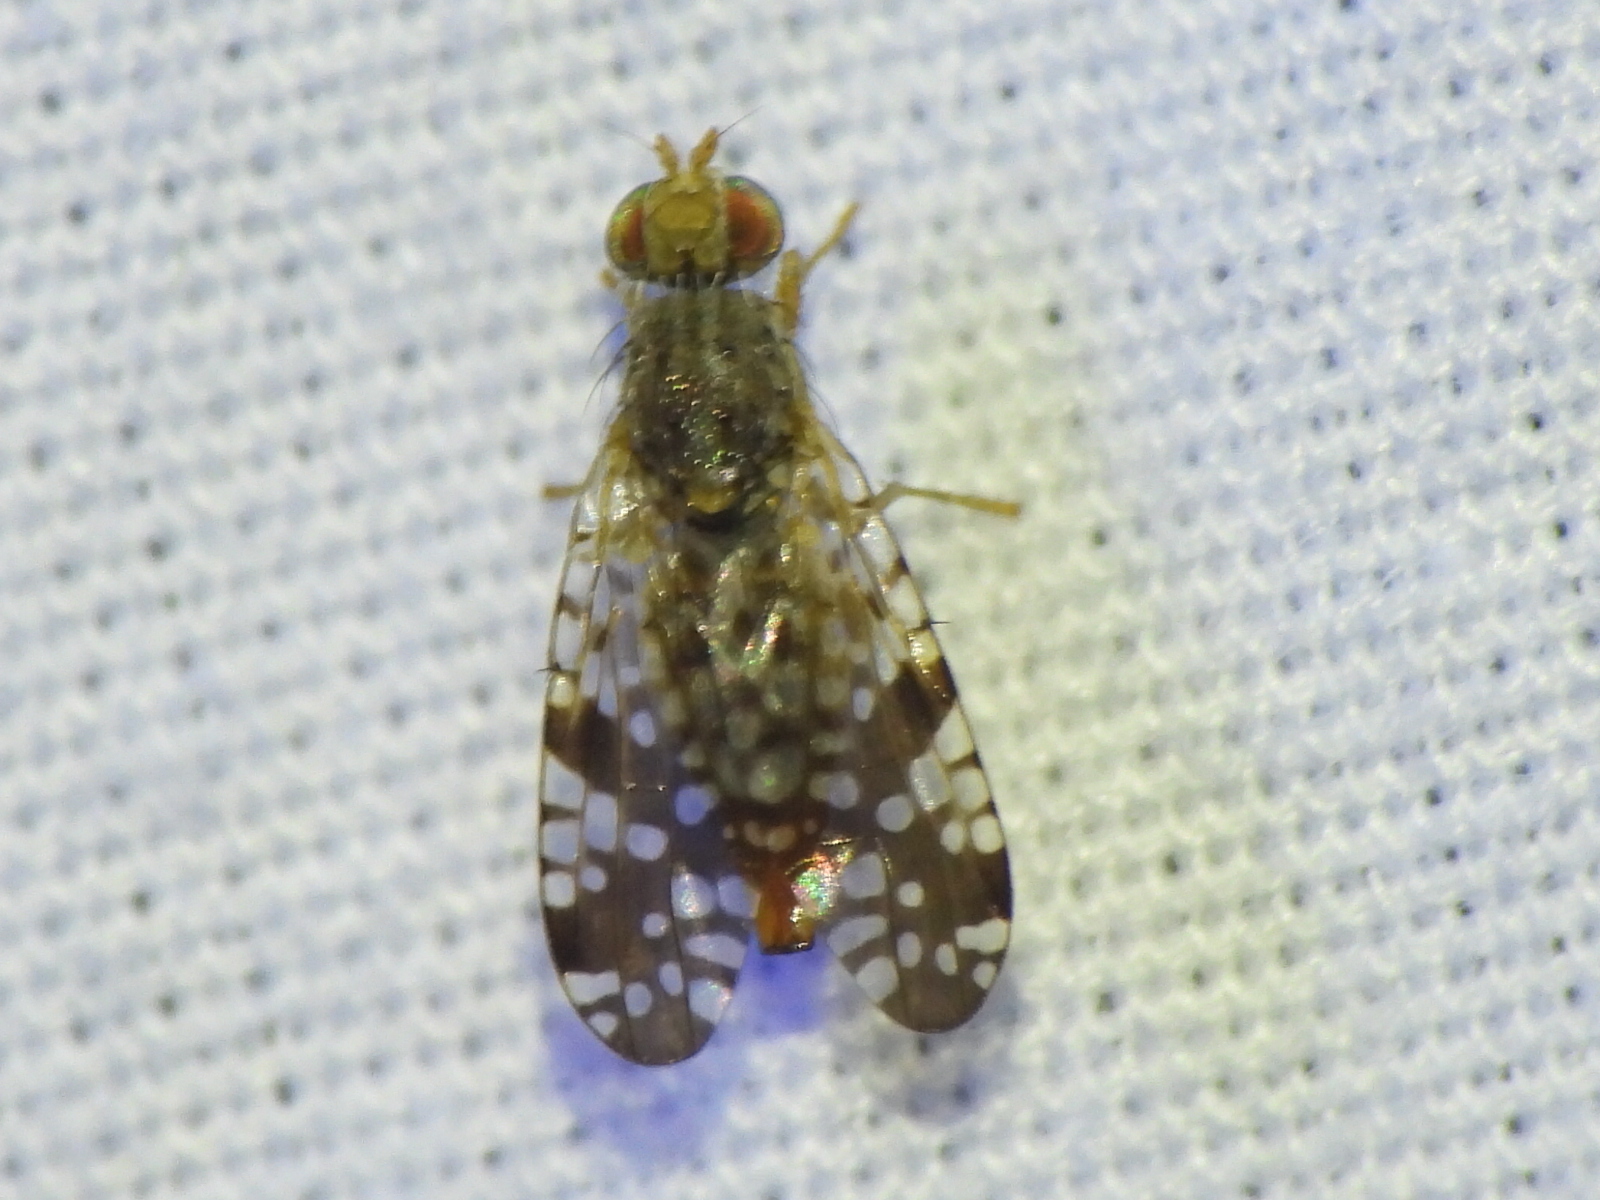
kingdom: Animalia
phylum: Arthropoda
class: Insecta
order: Diptera
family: Tephritidae
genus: Neotephritis
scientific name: Neotephritis finalis
